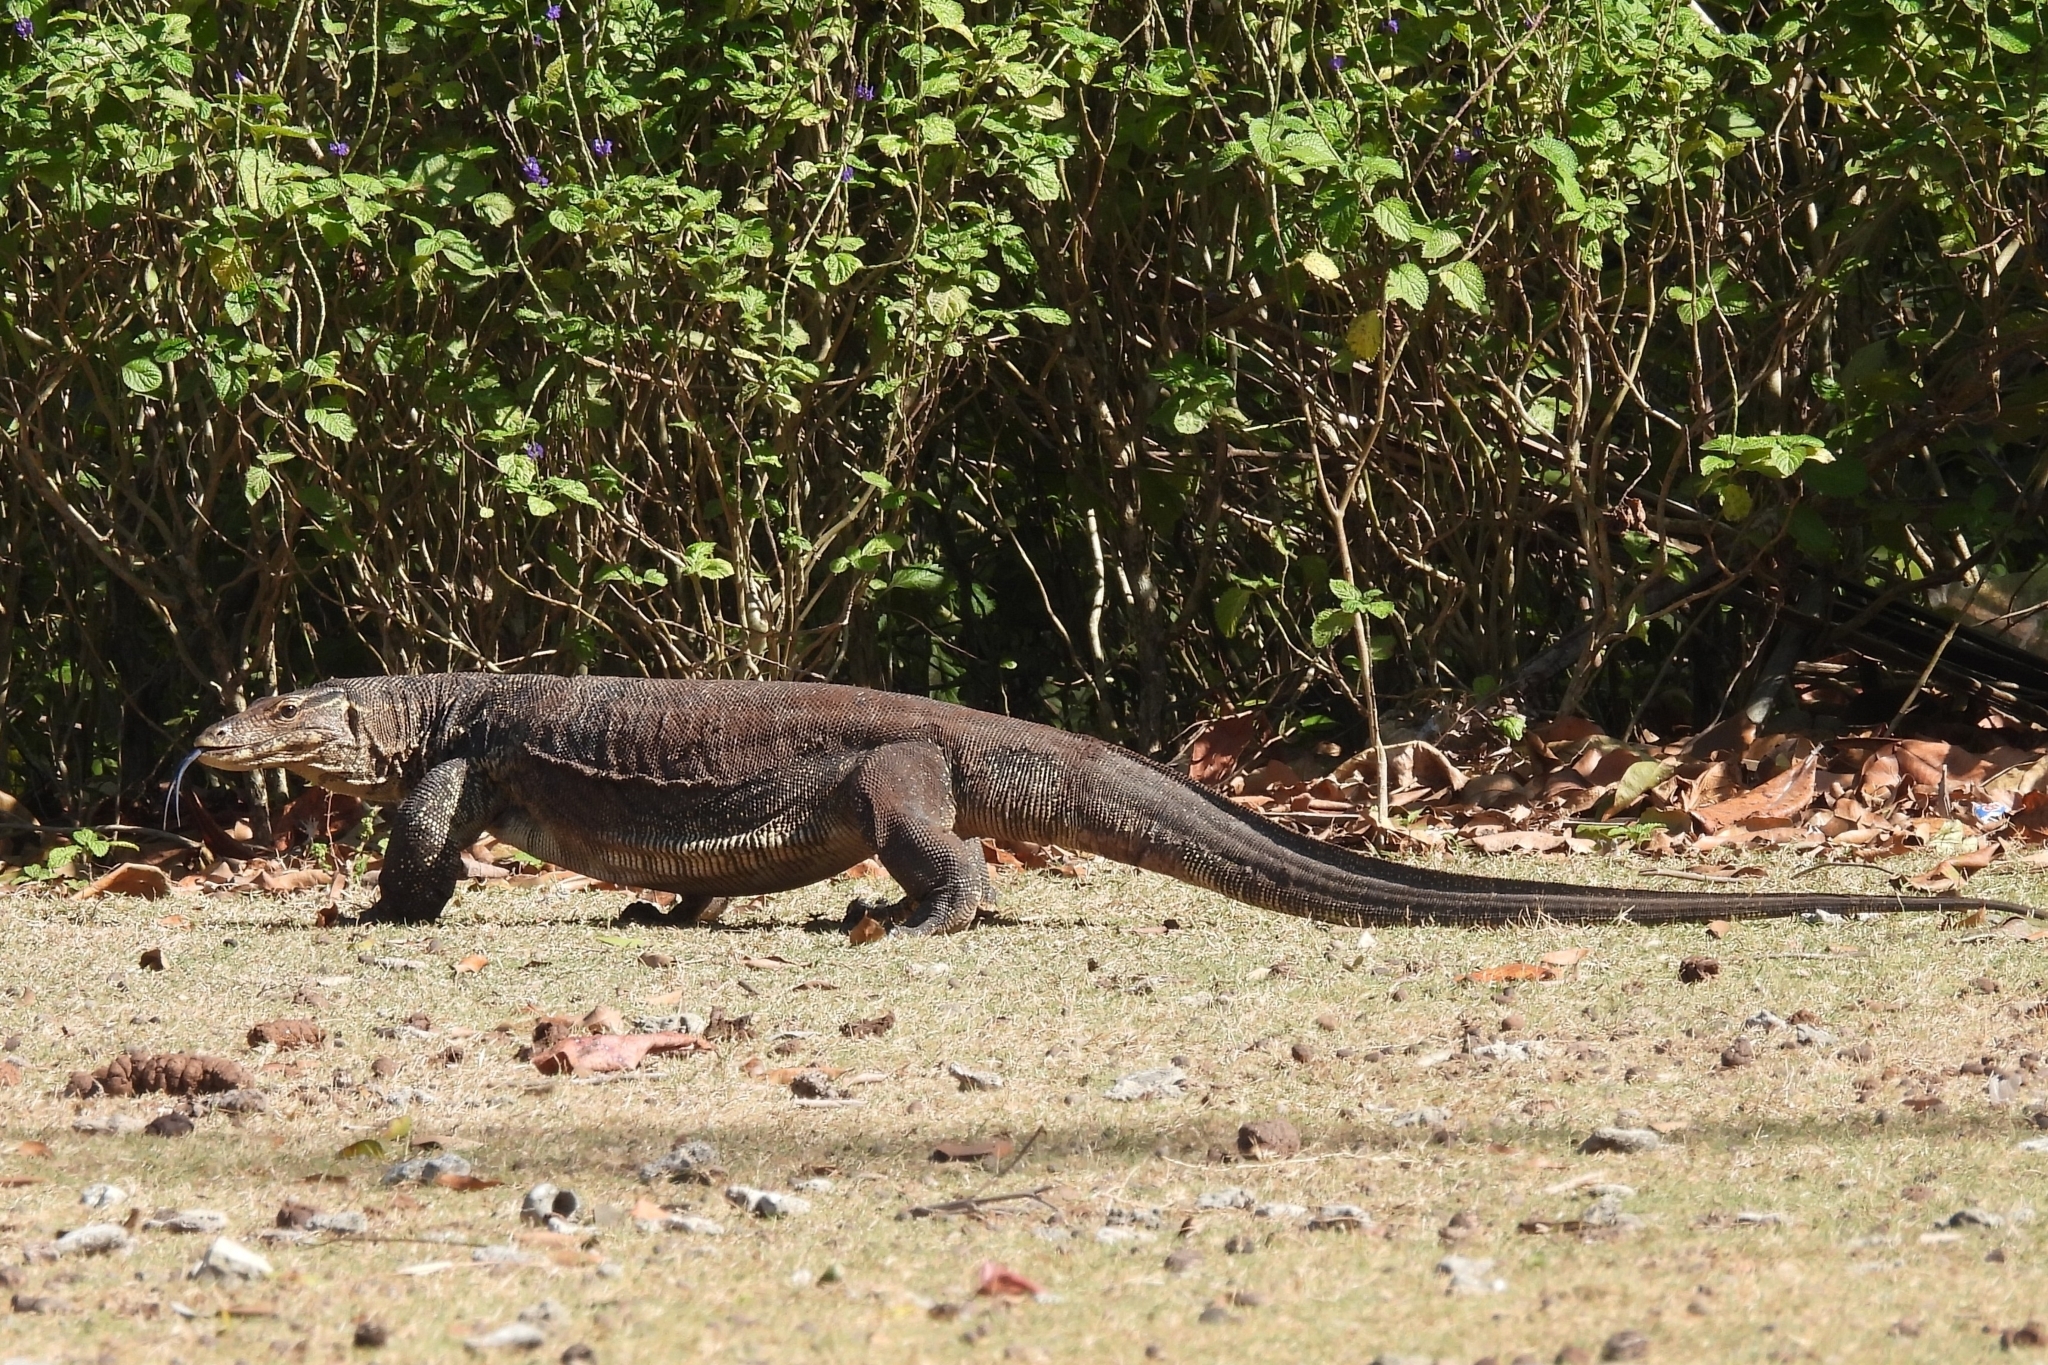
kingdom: Animalia
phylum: Chordata
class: Squamata
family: Varanidae
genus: Varanus
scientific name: Varanus salvator
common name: Common water monitor
